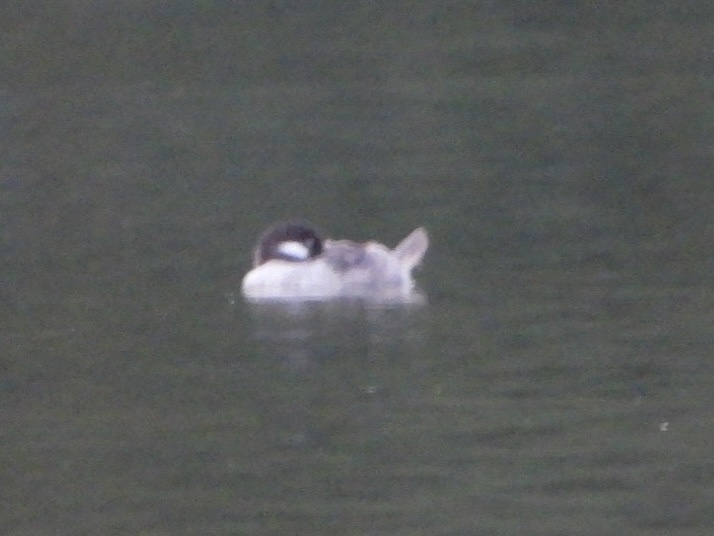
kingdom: Animalia
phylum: Chordata
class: Aves
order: Anseriformes
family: Anatidae
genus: Bucephala
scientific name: Bucephala albeola
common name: Bufflehead
